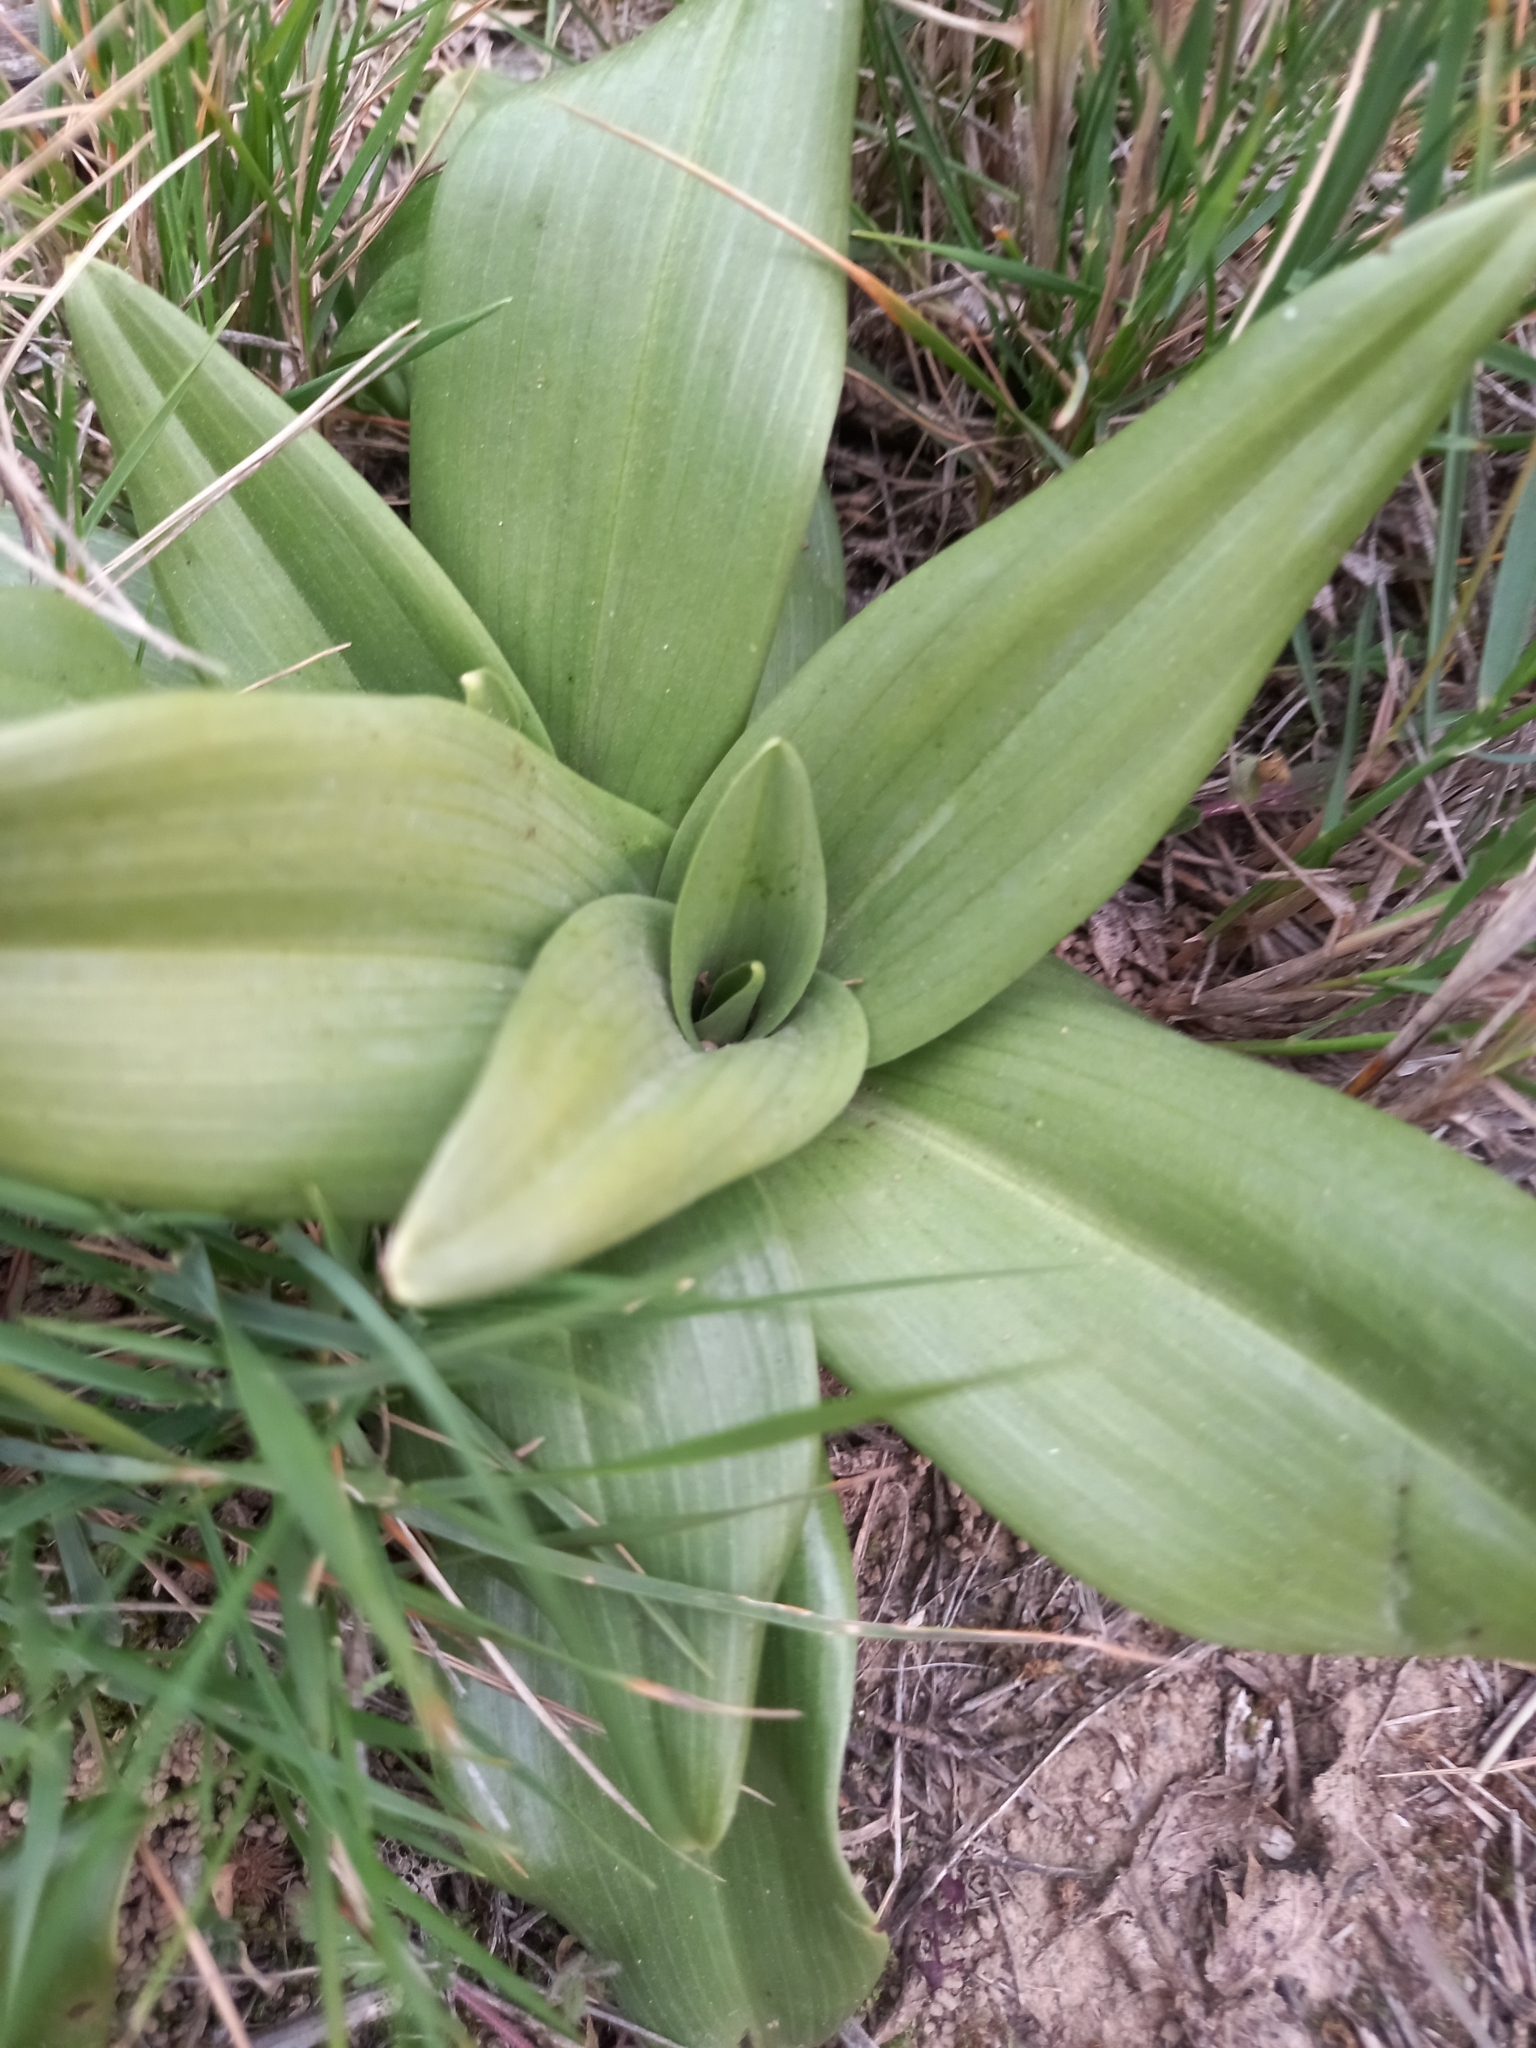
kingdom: Plantae
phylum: Tracheophyta
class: Liliopsida
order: Asparagales
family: Orchidaceae
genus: Himantoglossum
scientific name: Himantoglossum hircinum
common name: Lizard orchid
